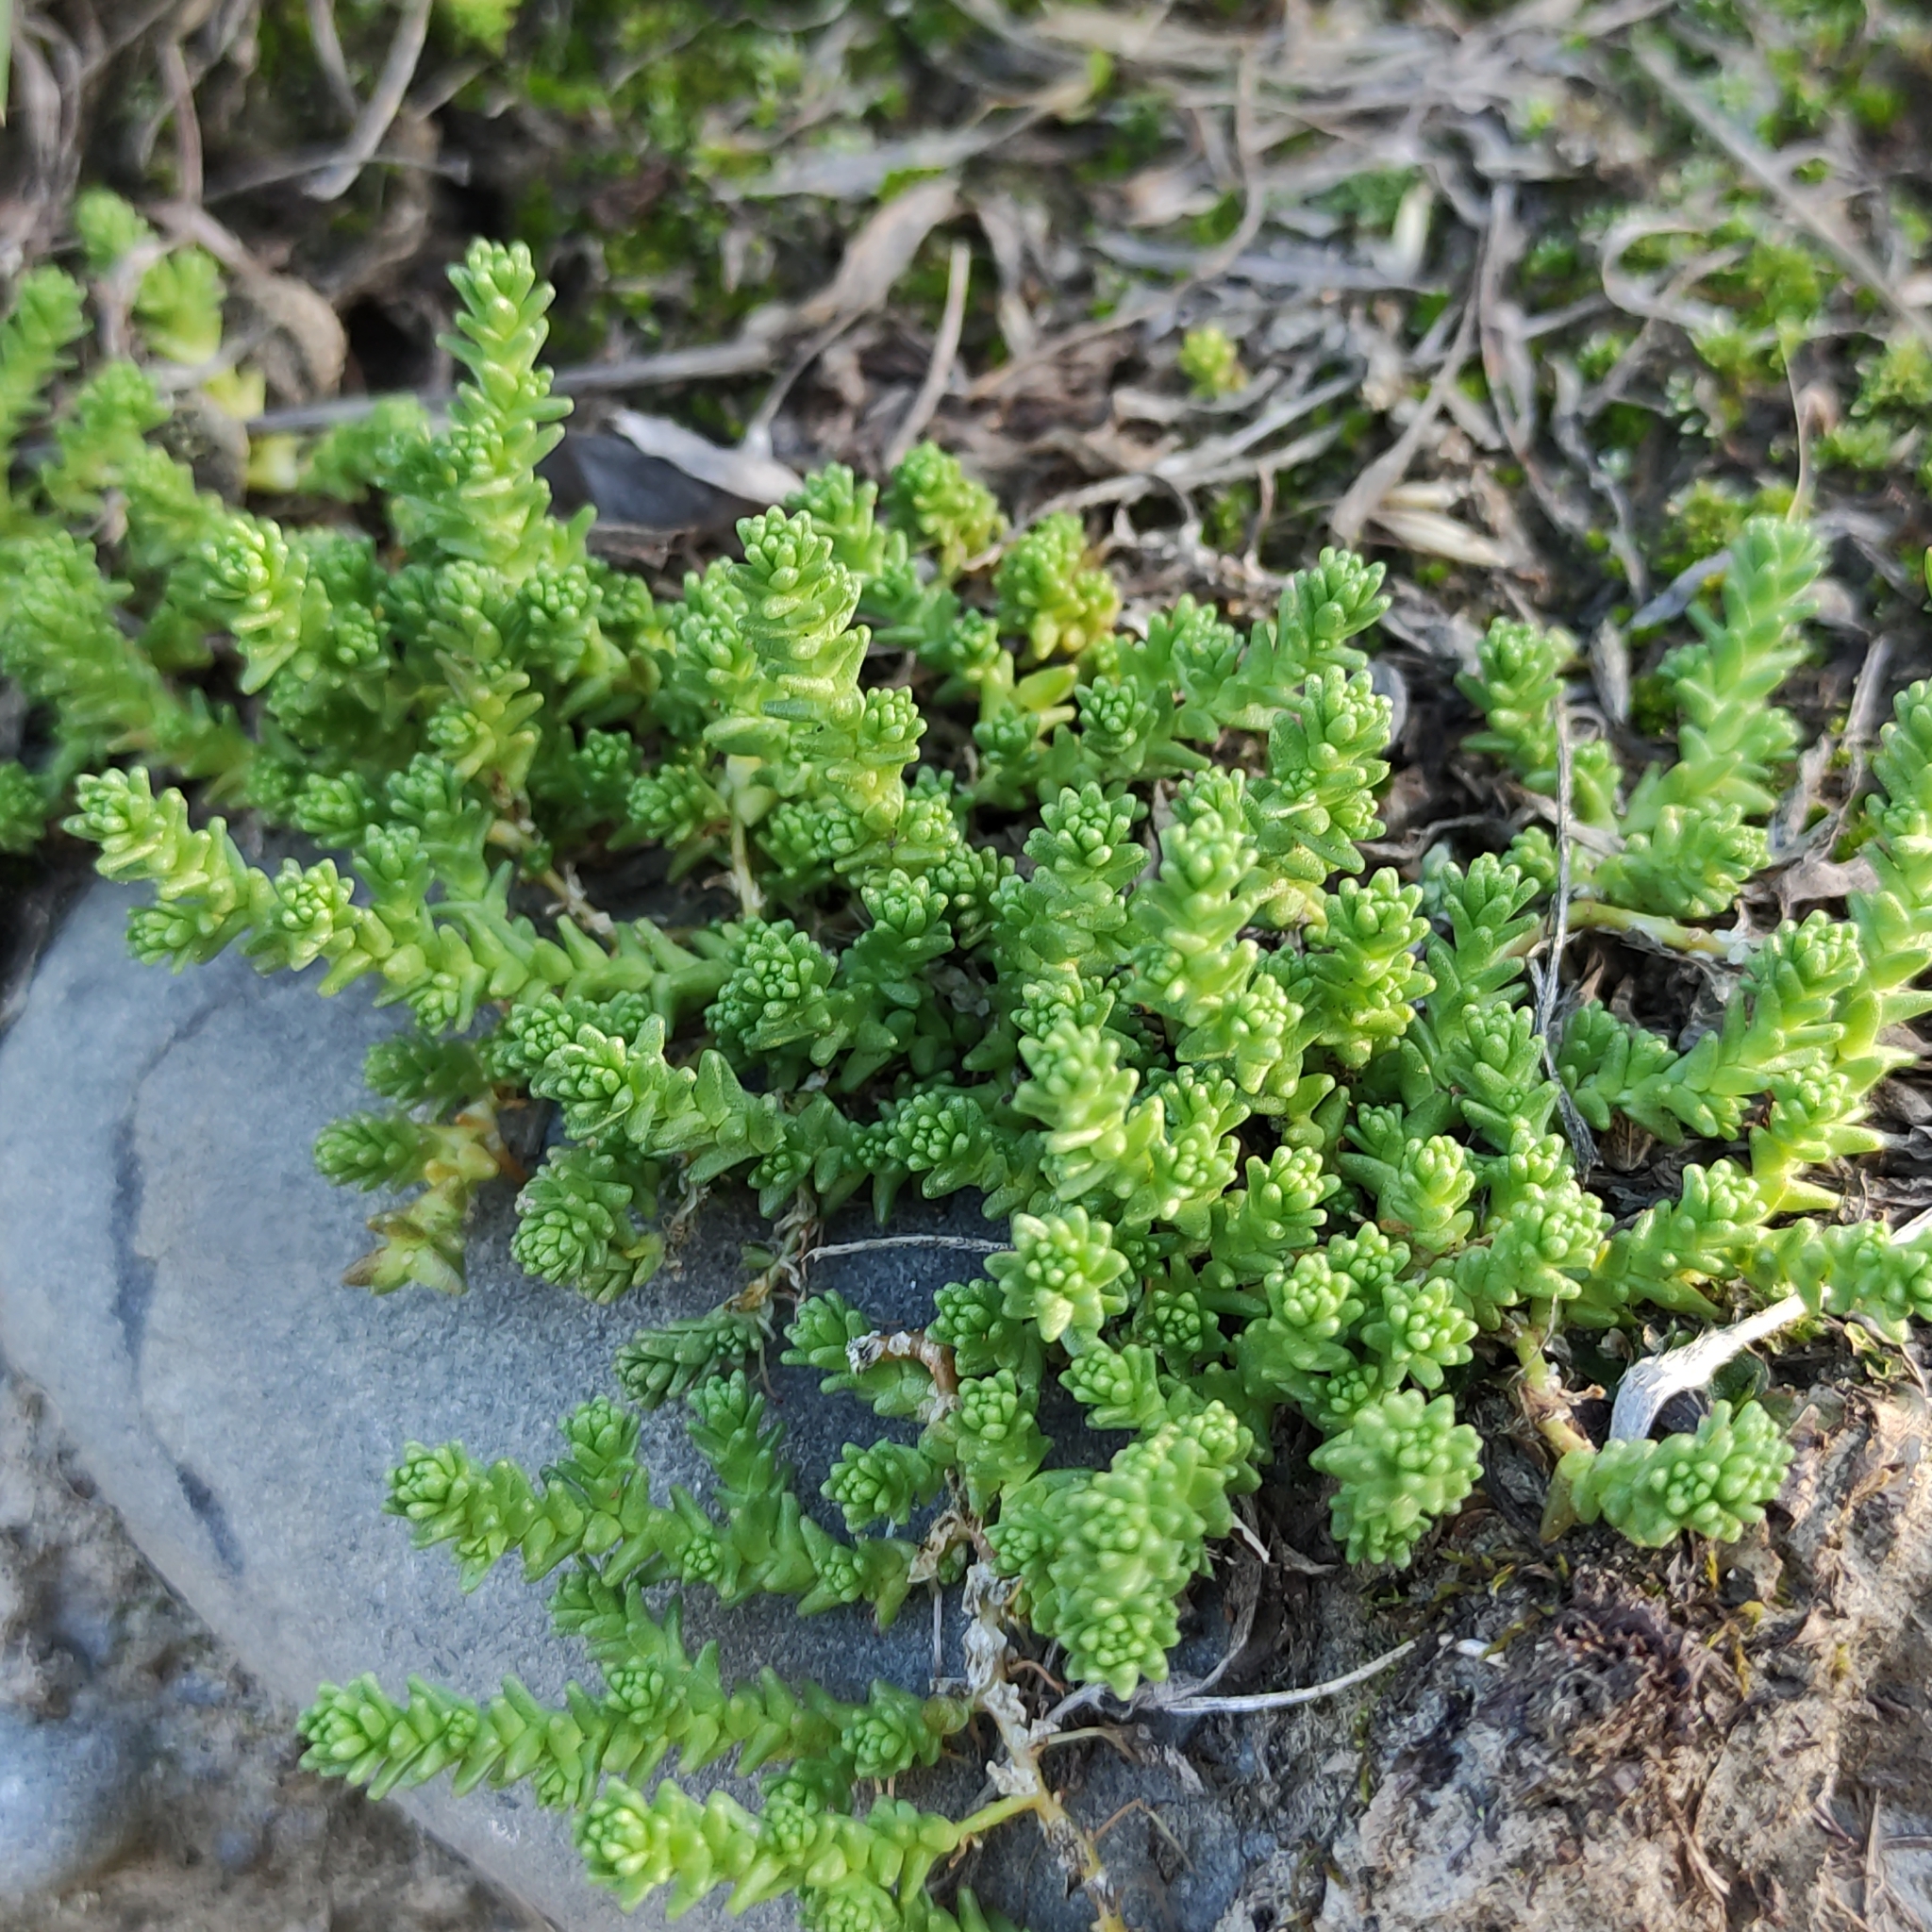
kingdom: Plantae
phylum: Tracheophyta
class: Magnoliopsida
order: Saxifragales
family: Crassulaceae
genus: Sedum
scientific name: Sedum acre
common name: Biting stonecrop
